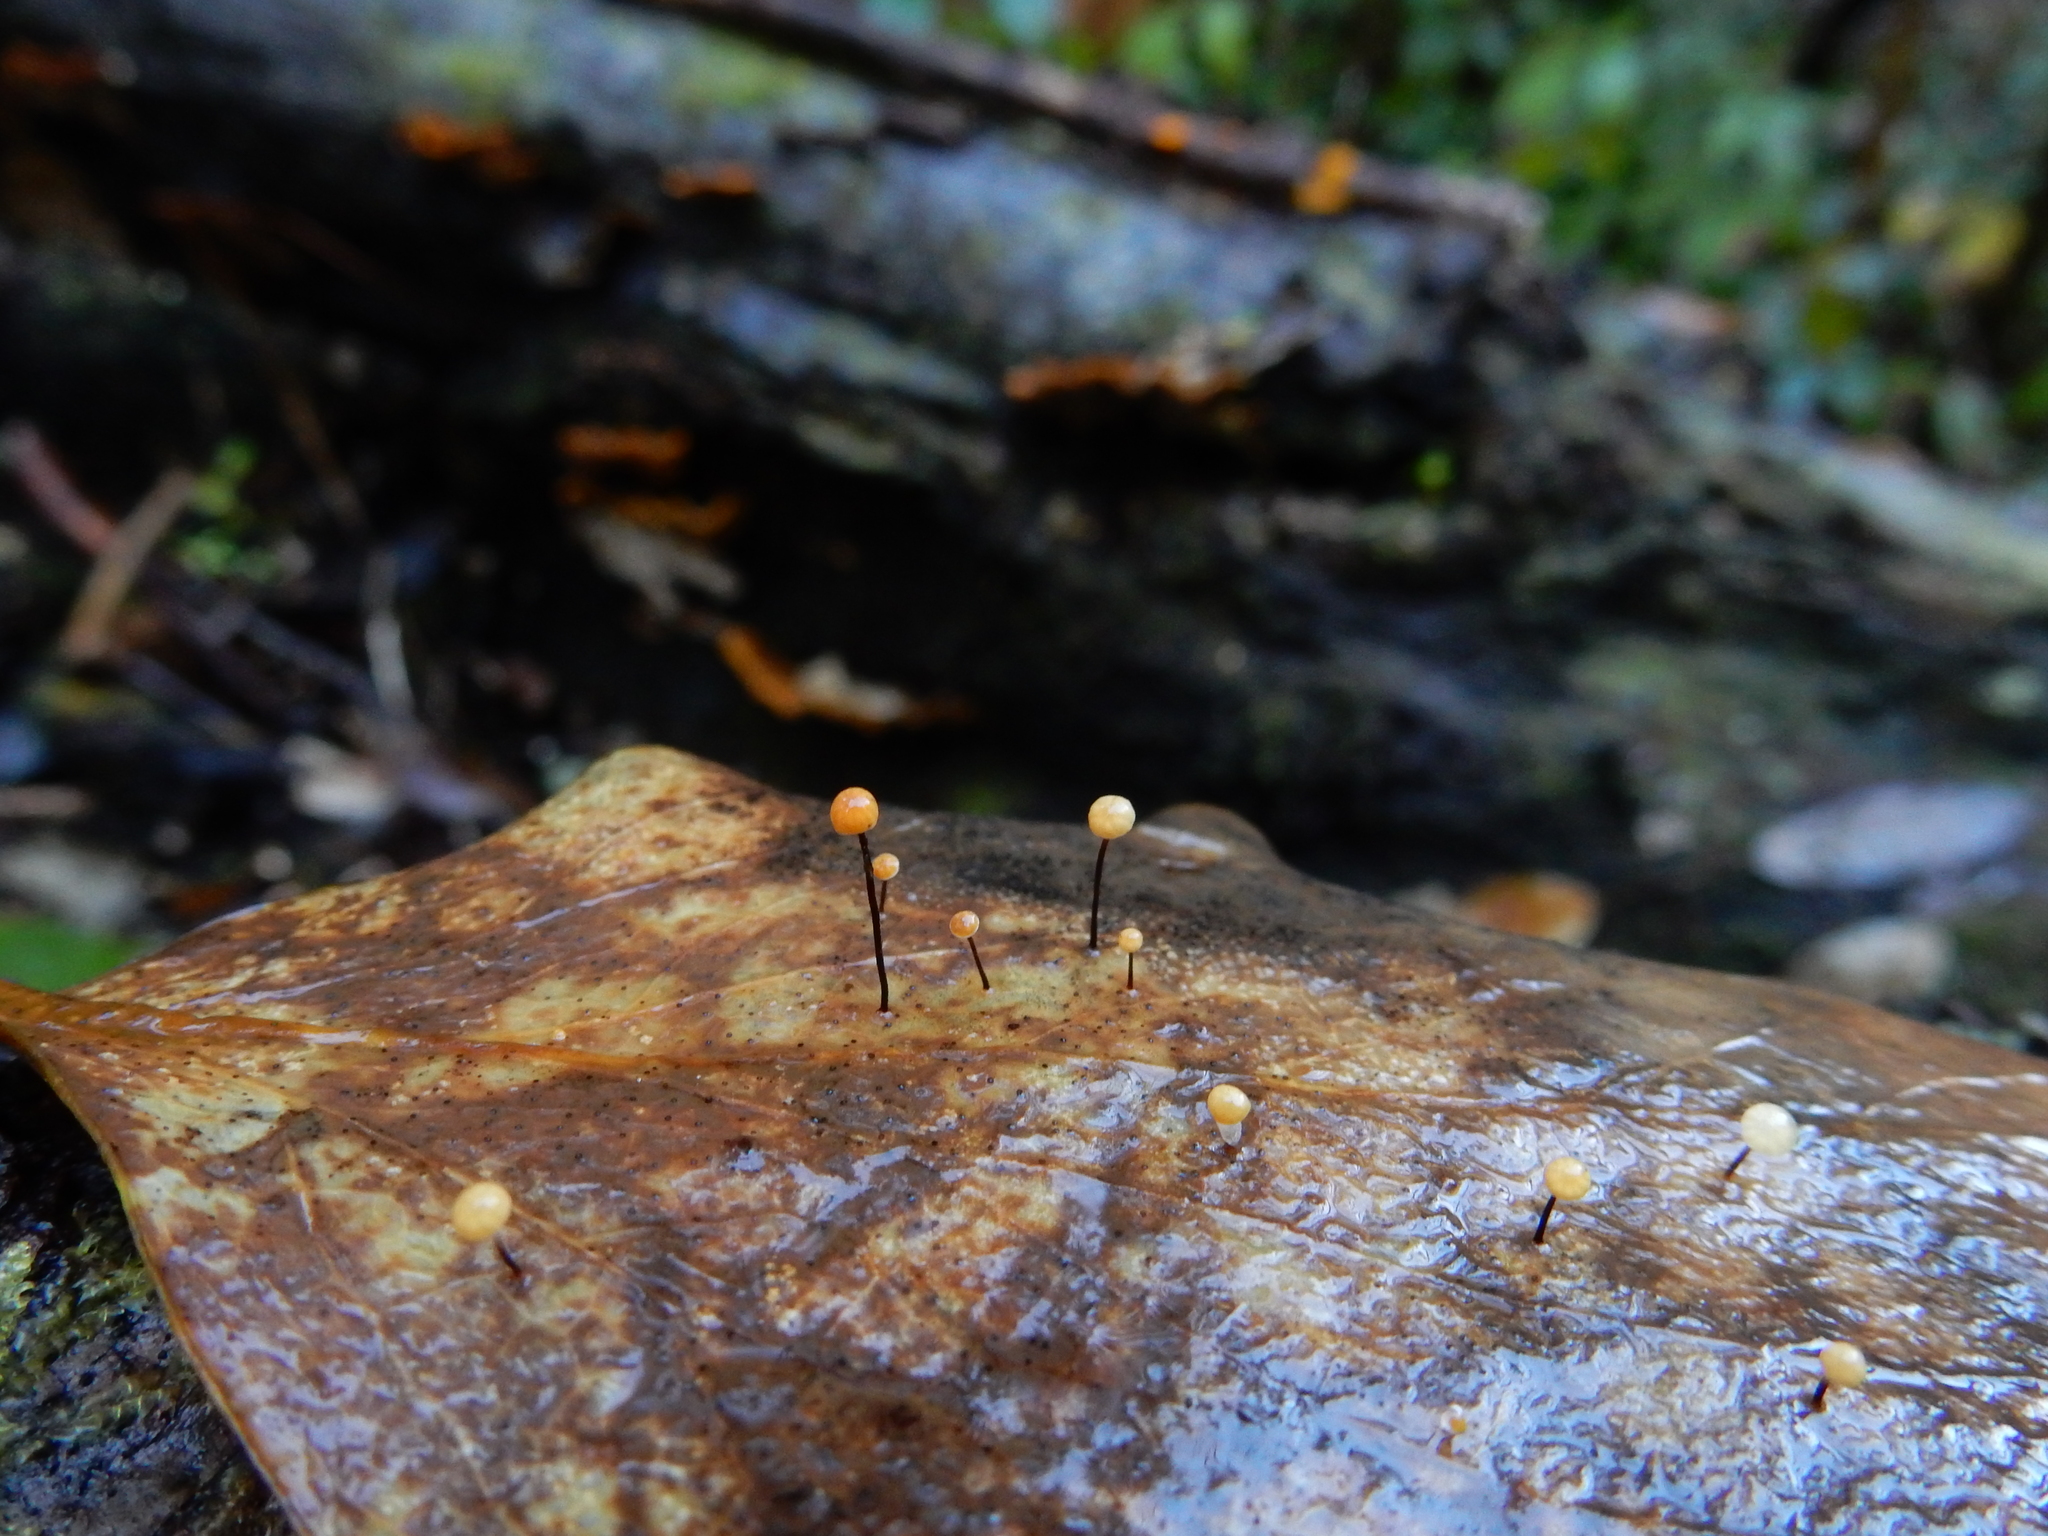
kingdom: Fungi
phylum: Basidiomycota
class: Agaricomycetes
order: Agaricales
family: Physalacriaceae
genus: Gloiocephala
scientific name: Gloiocephala xanthocephala
